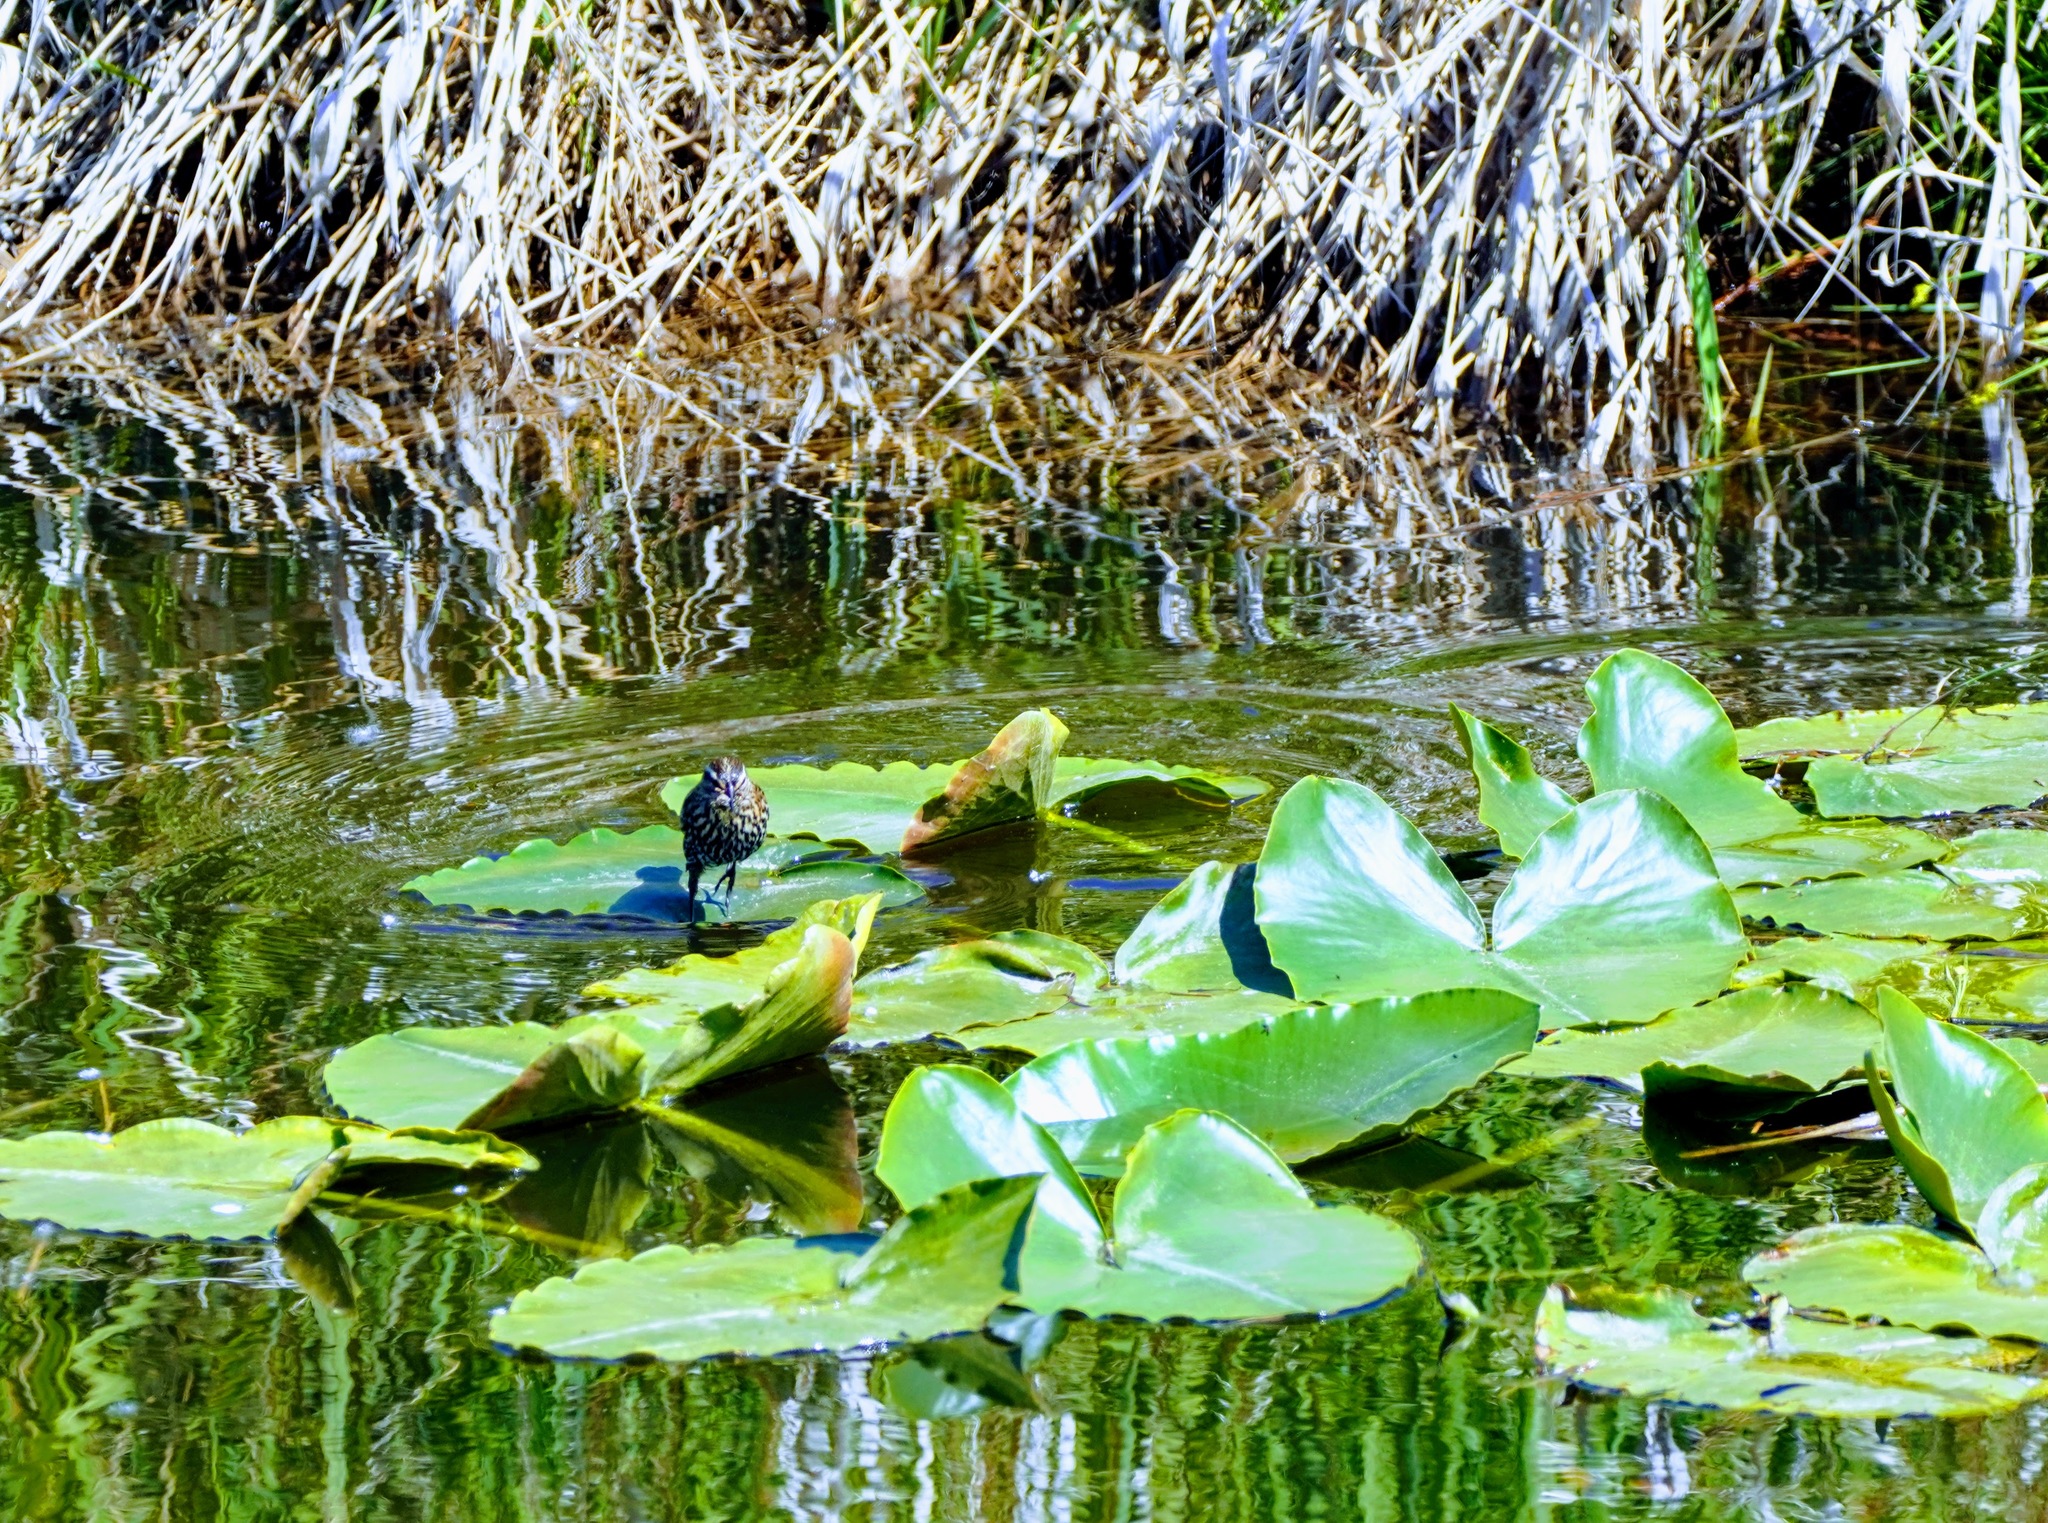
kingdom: Animalia
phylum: Chordata
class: Aves
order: Passeriformes
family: Icteridae
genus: Agelaius
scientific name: Agelaius phoeniceus
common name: Red-winged blackbird
